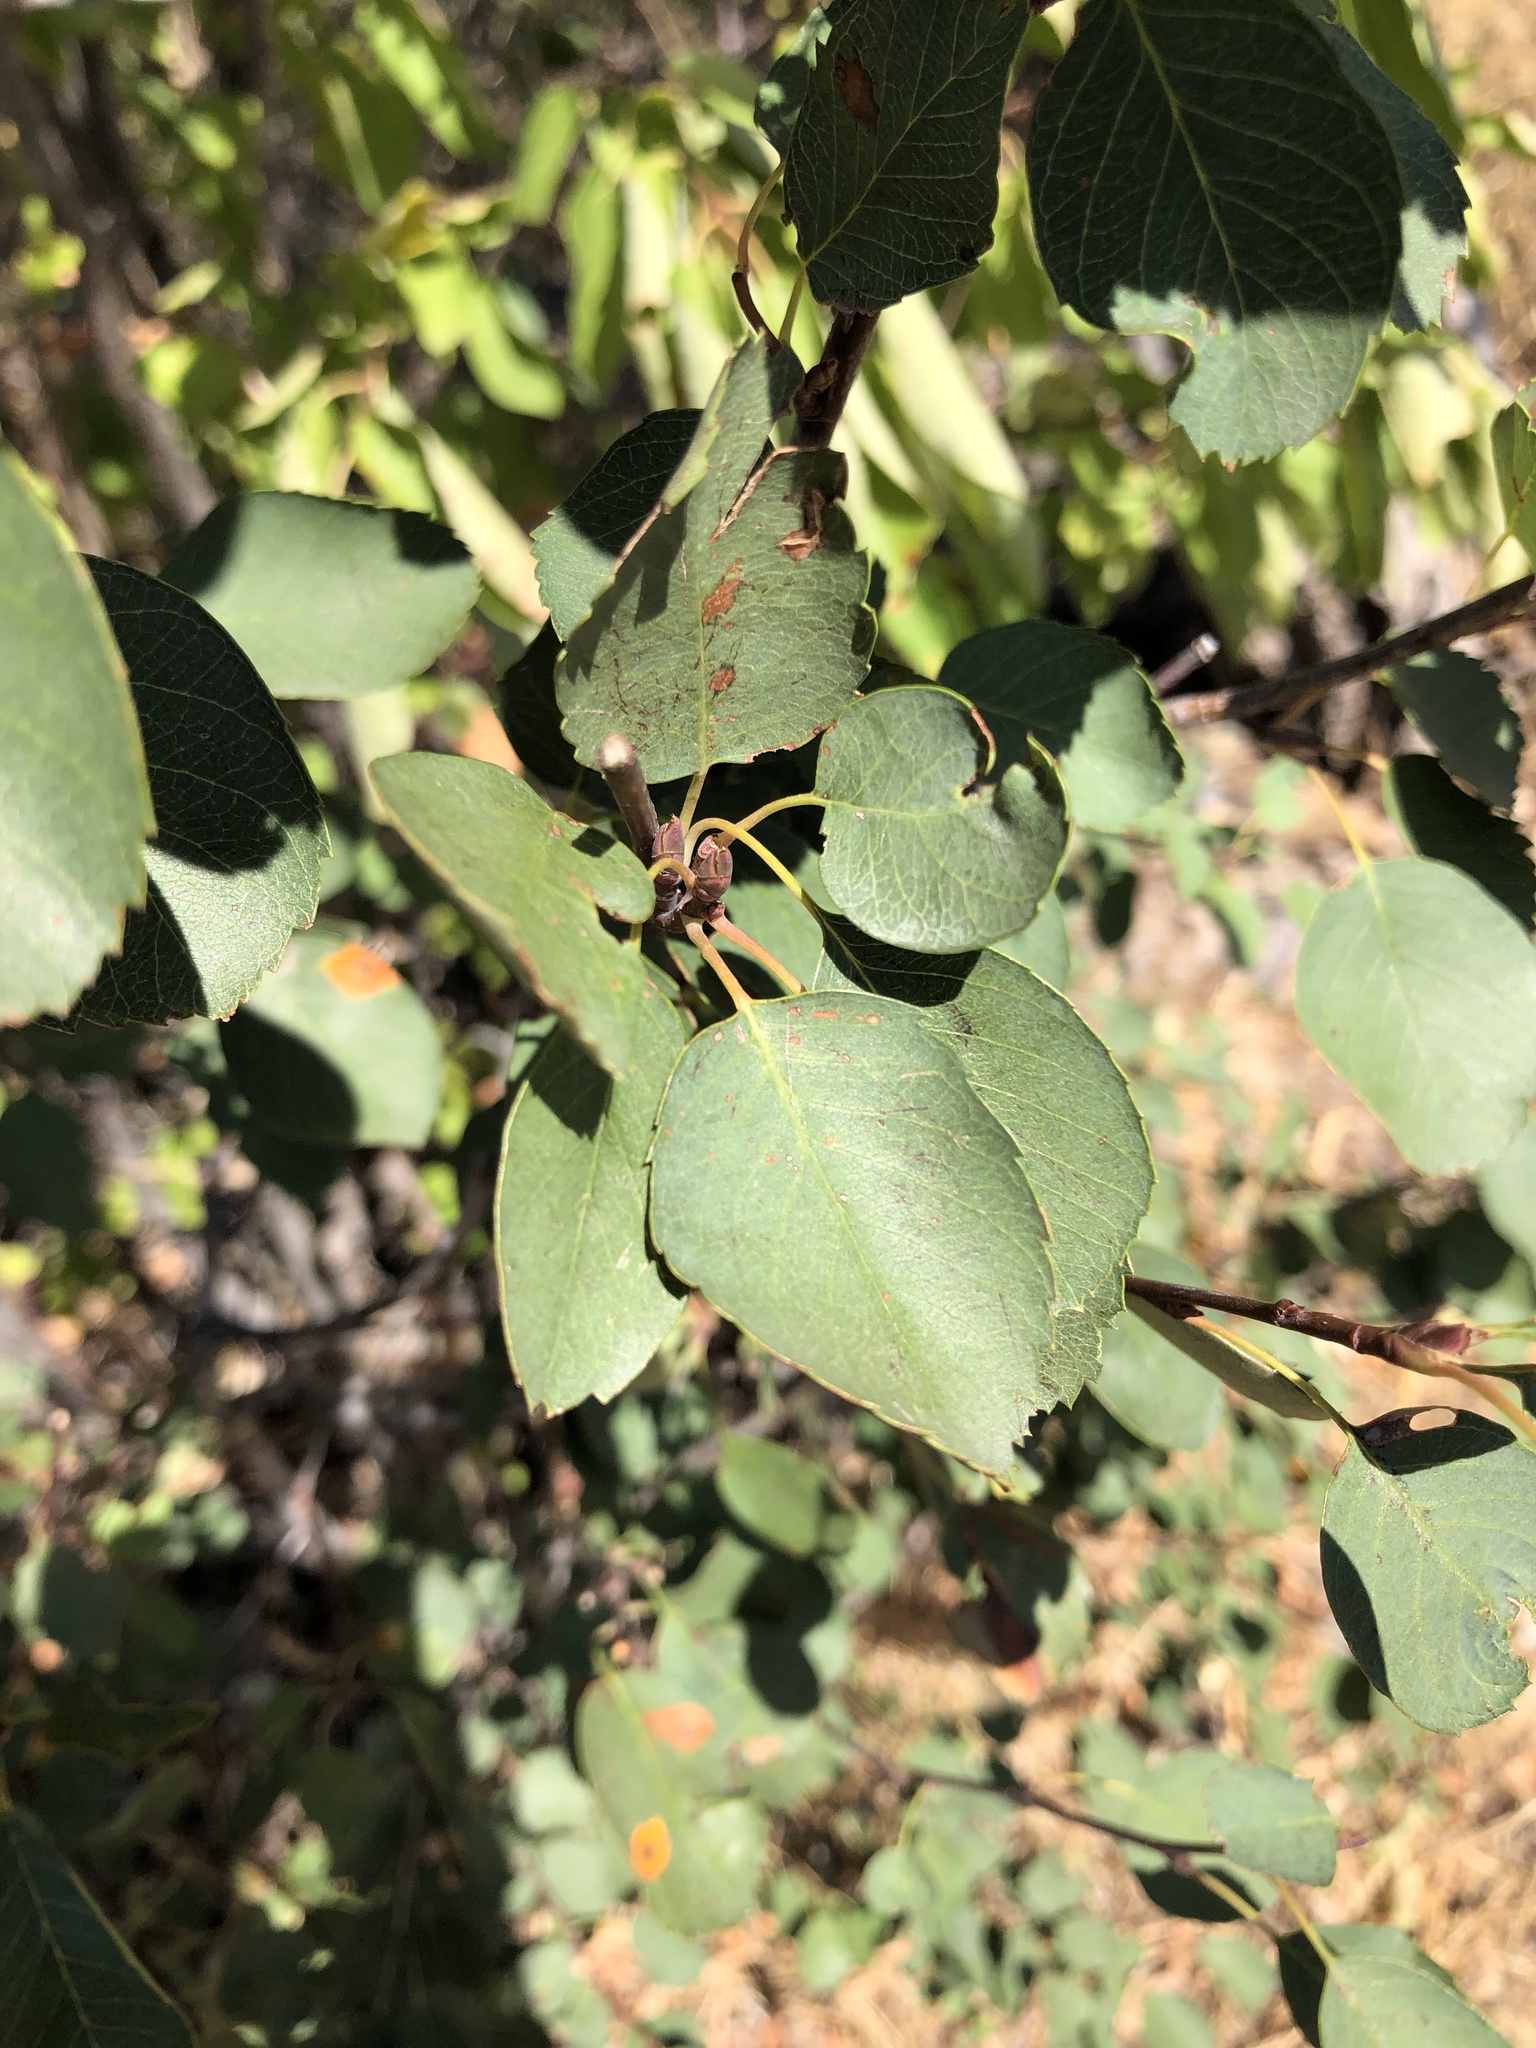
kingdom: Plantae
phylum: Tracheophyta
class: Magnoliopsida
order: Rosales
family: Rosaceae
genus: Amelanchier
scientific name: Amelanchier alnifolia
